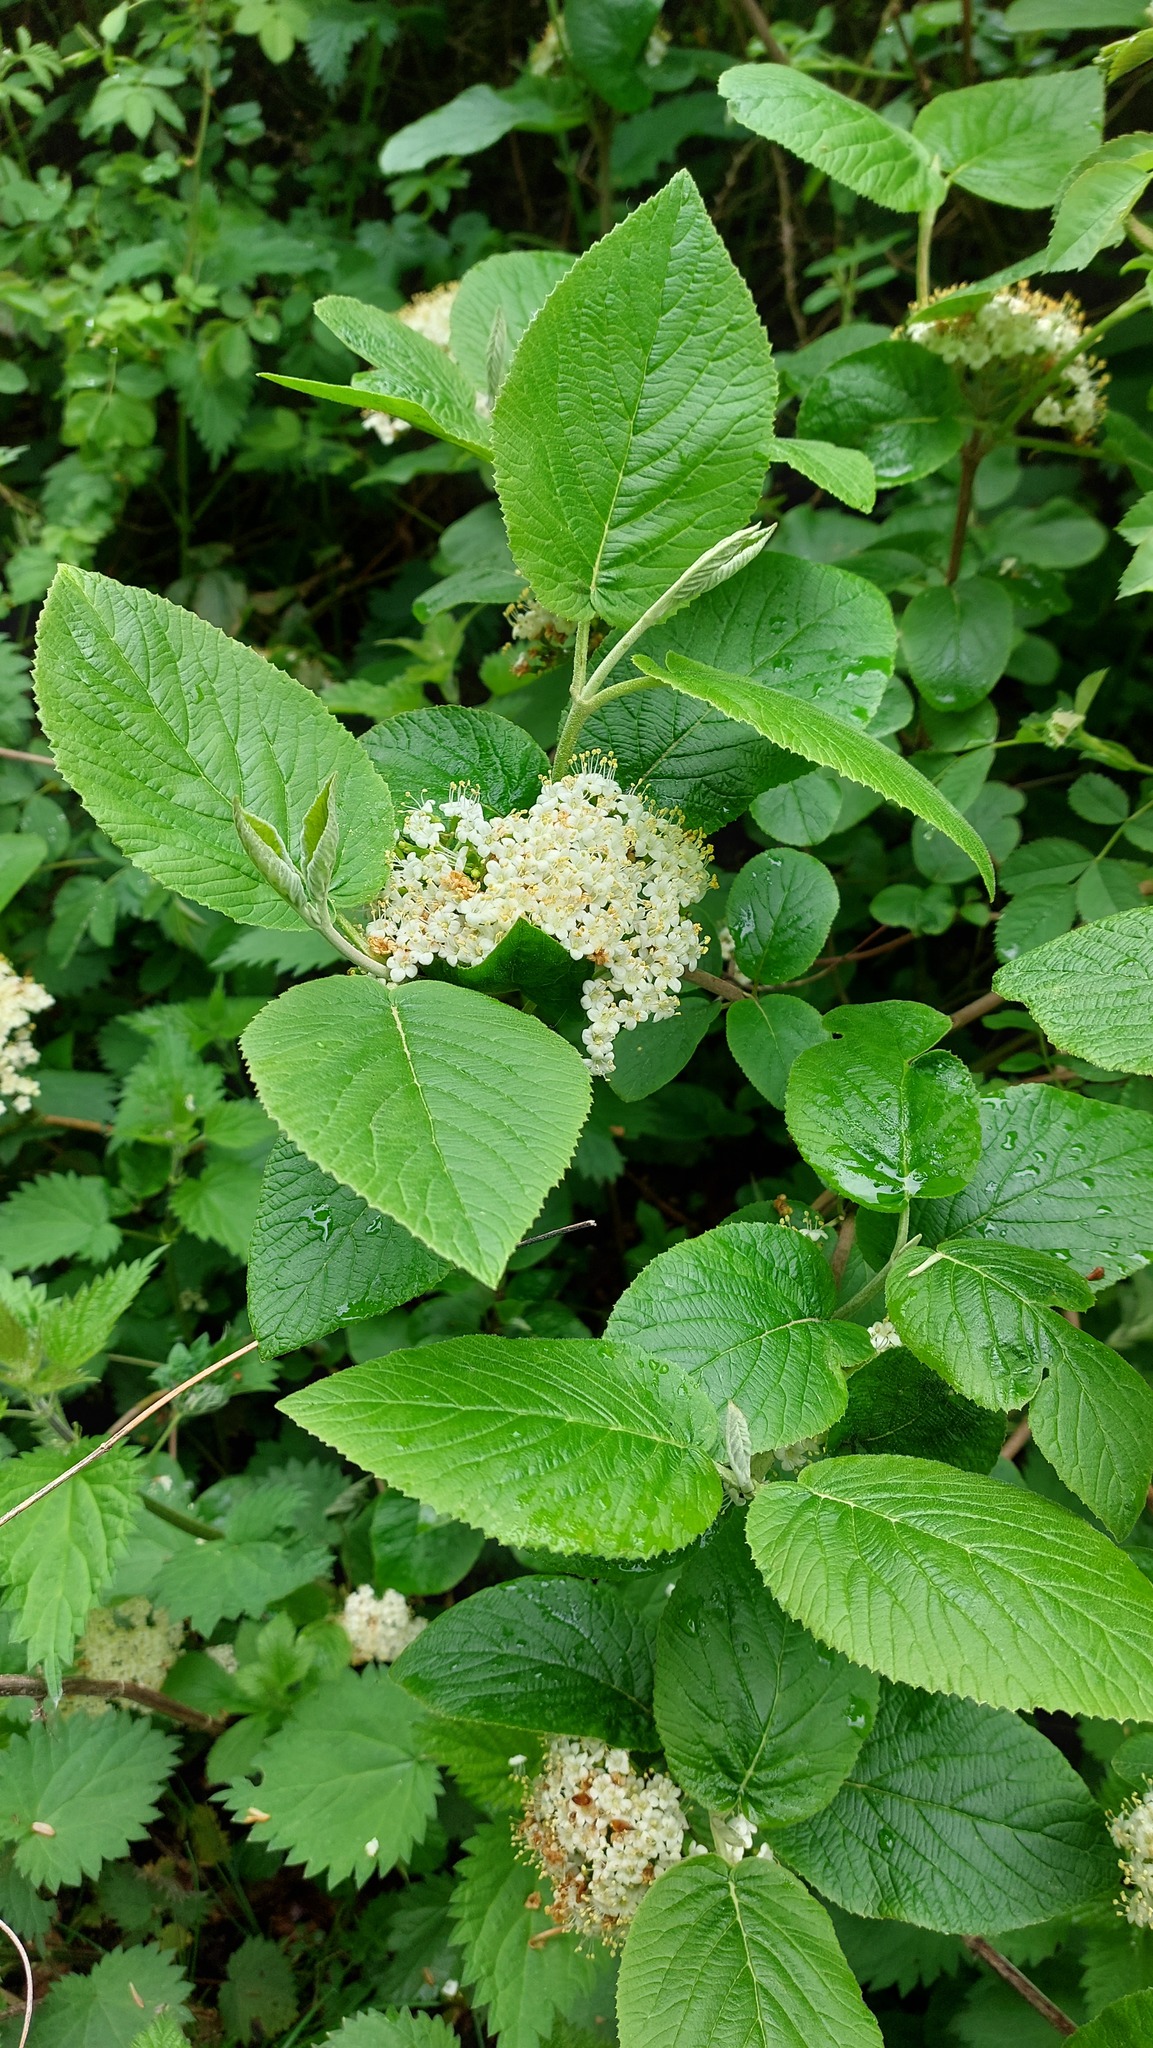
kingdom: Plantae
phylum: Tracheophyta
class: Magnoliopsida
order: Dipsacales
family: Viburnaceae
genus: Viburnum
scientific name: Viburnum lantana
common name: Wayfaring tree
